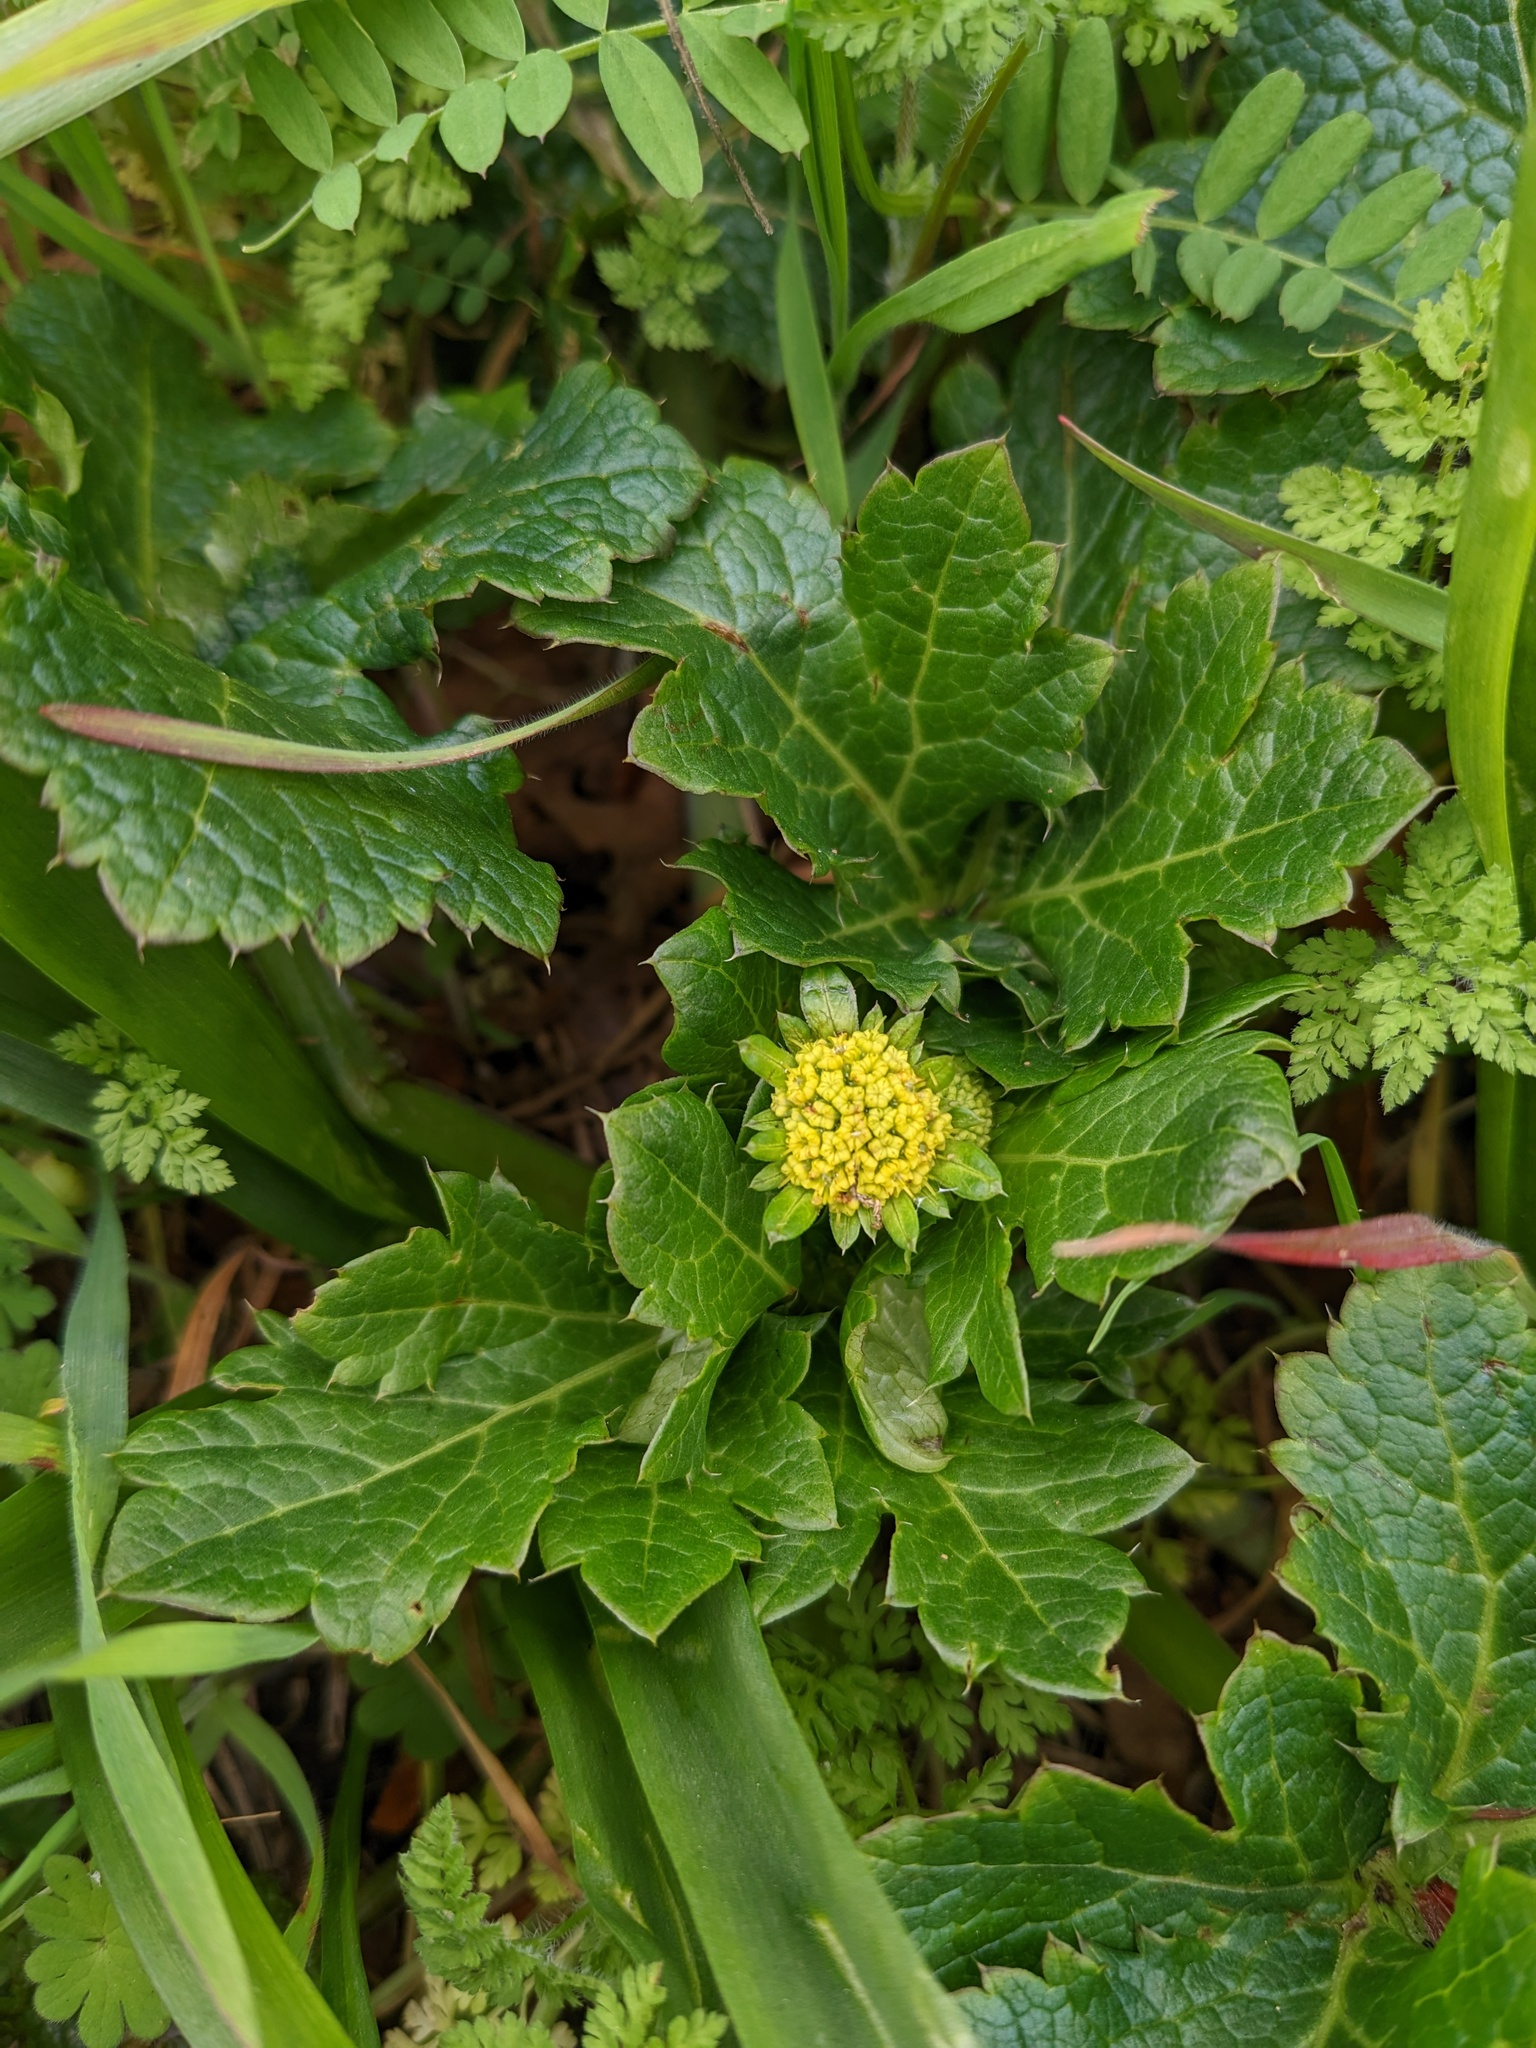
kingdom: Plantae
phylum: Tracheophyta
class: Magnoliopsida
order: Apiales
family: Apiaceae
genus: Sanicula
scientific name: Sanicula crassicaulis
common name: Western snakeroot
